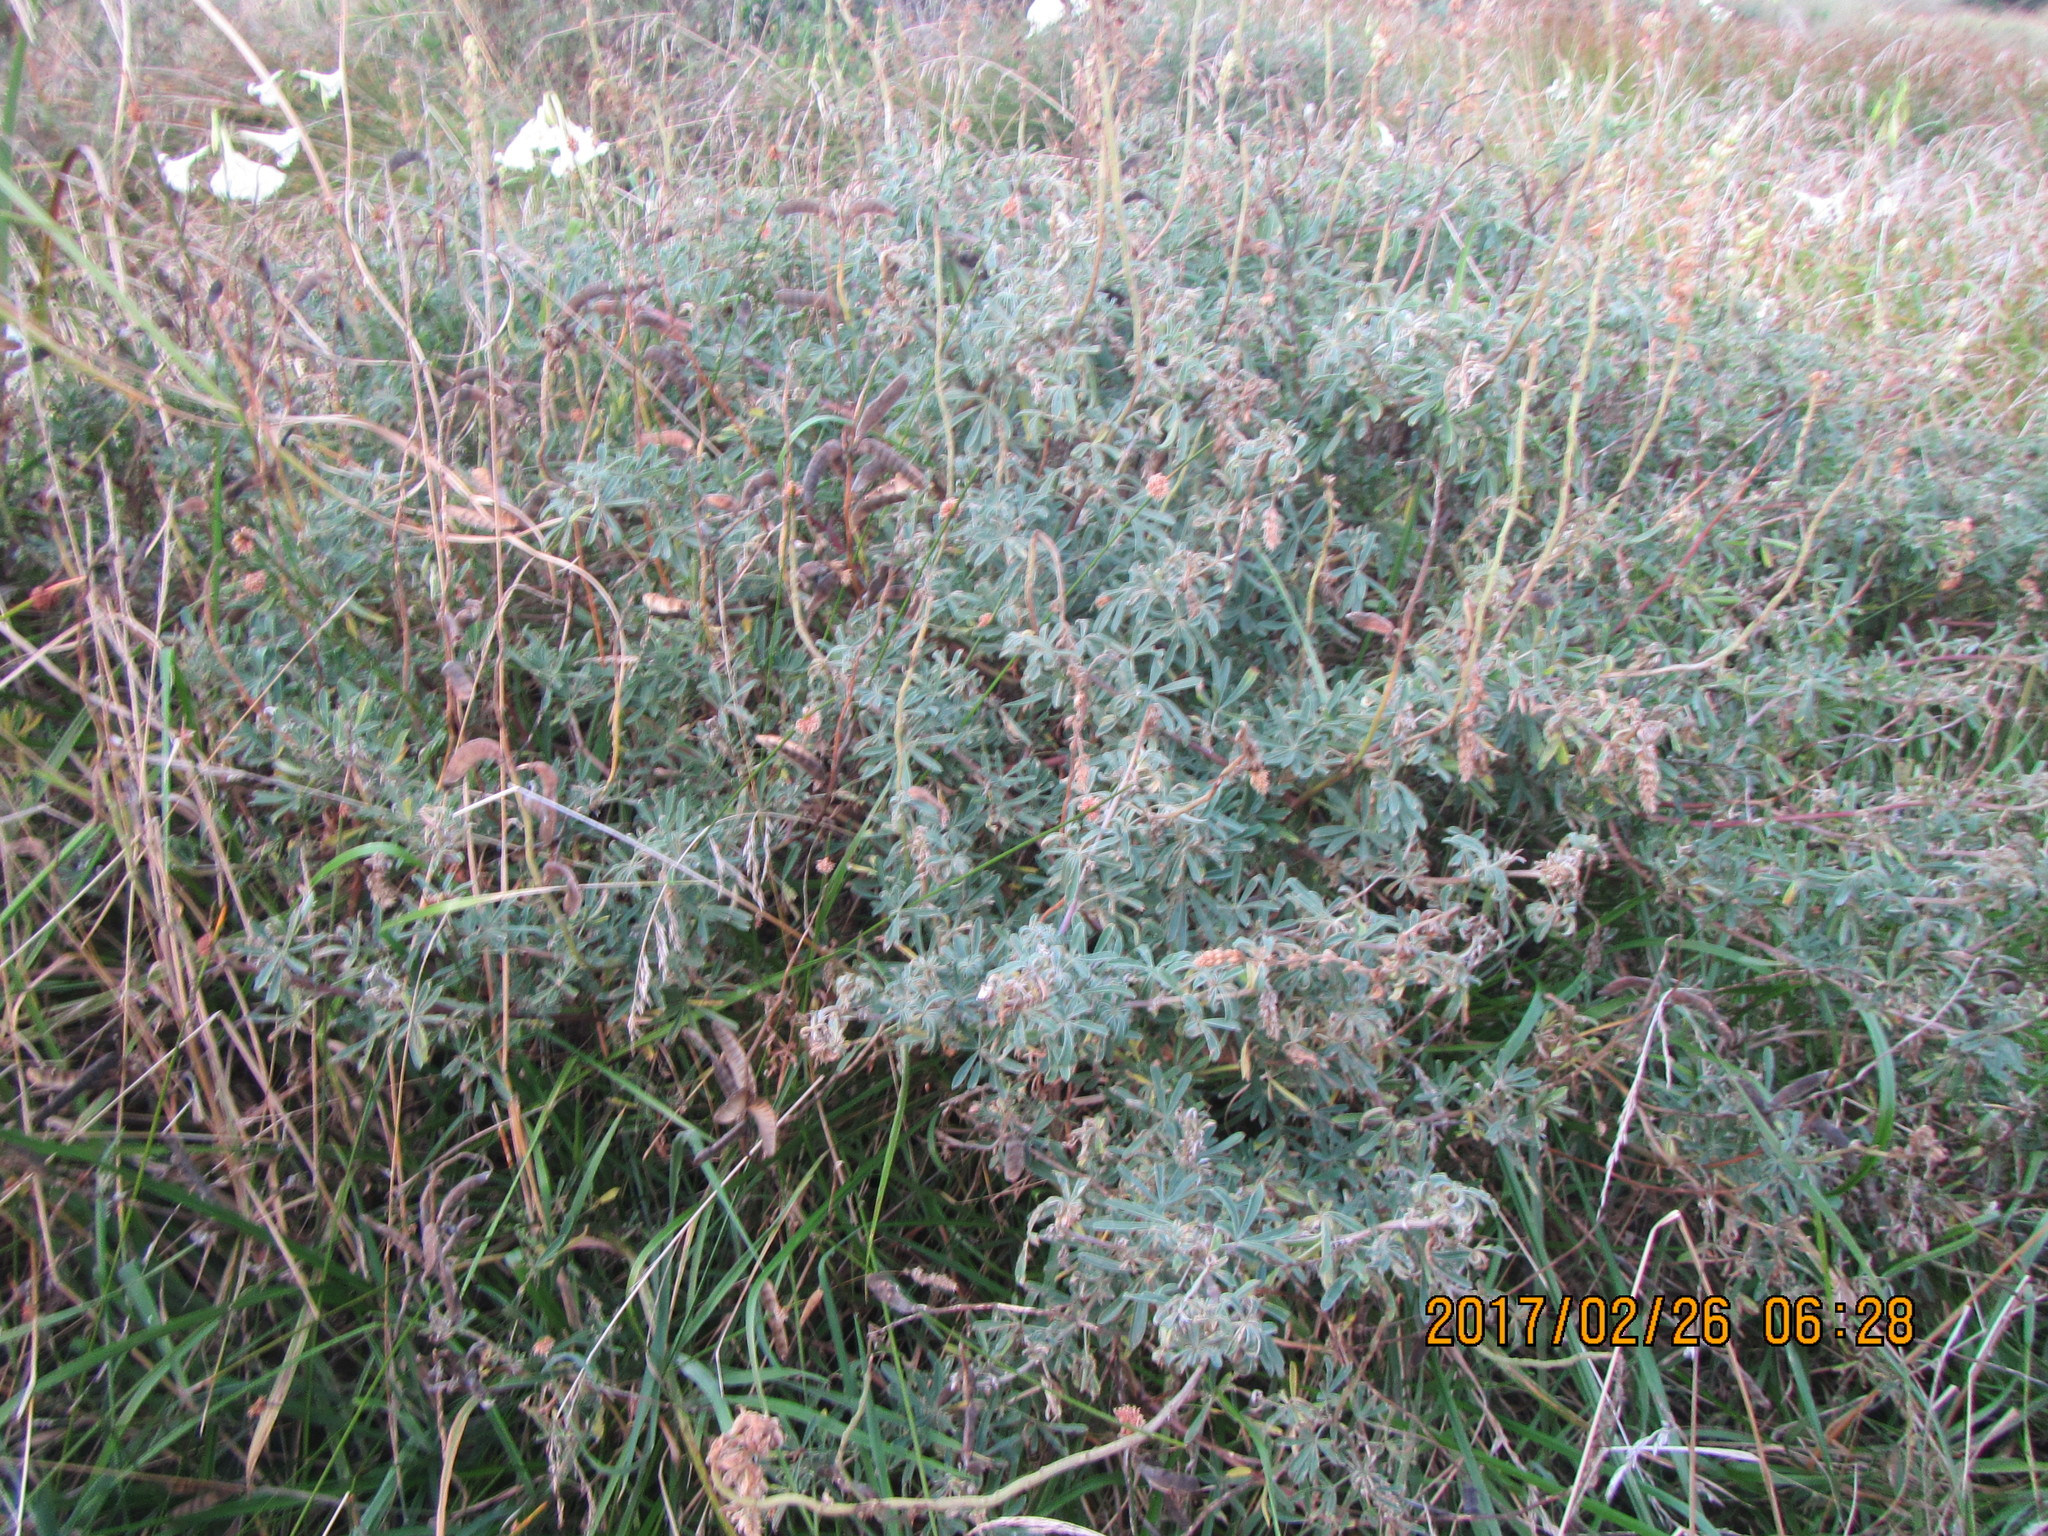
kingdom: Plantae
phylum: Tracheophyta
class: Magnoliopsida
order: Fabales
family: Fabaceae
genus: Lupinus
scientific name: Lupinus arboreus
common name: Yellow bush lupine
